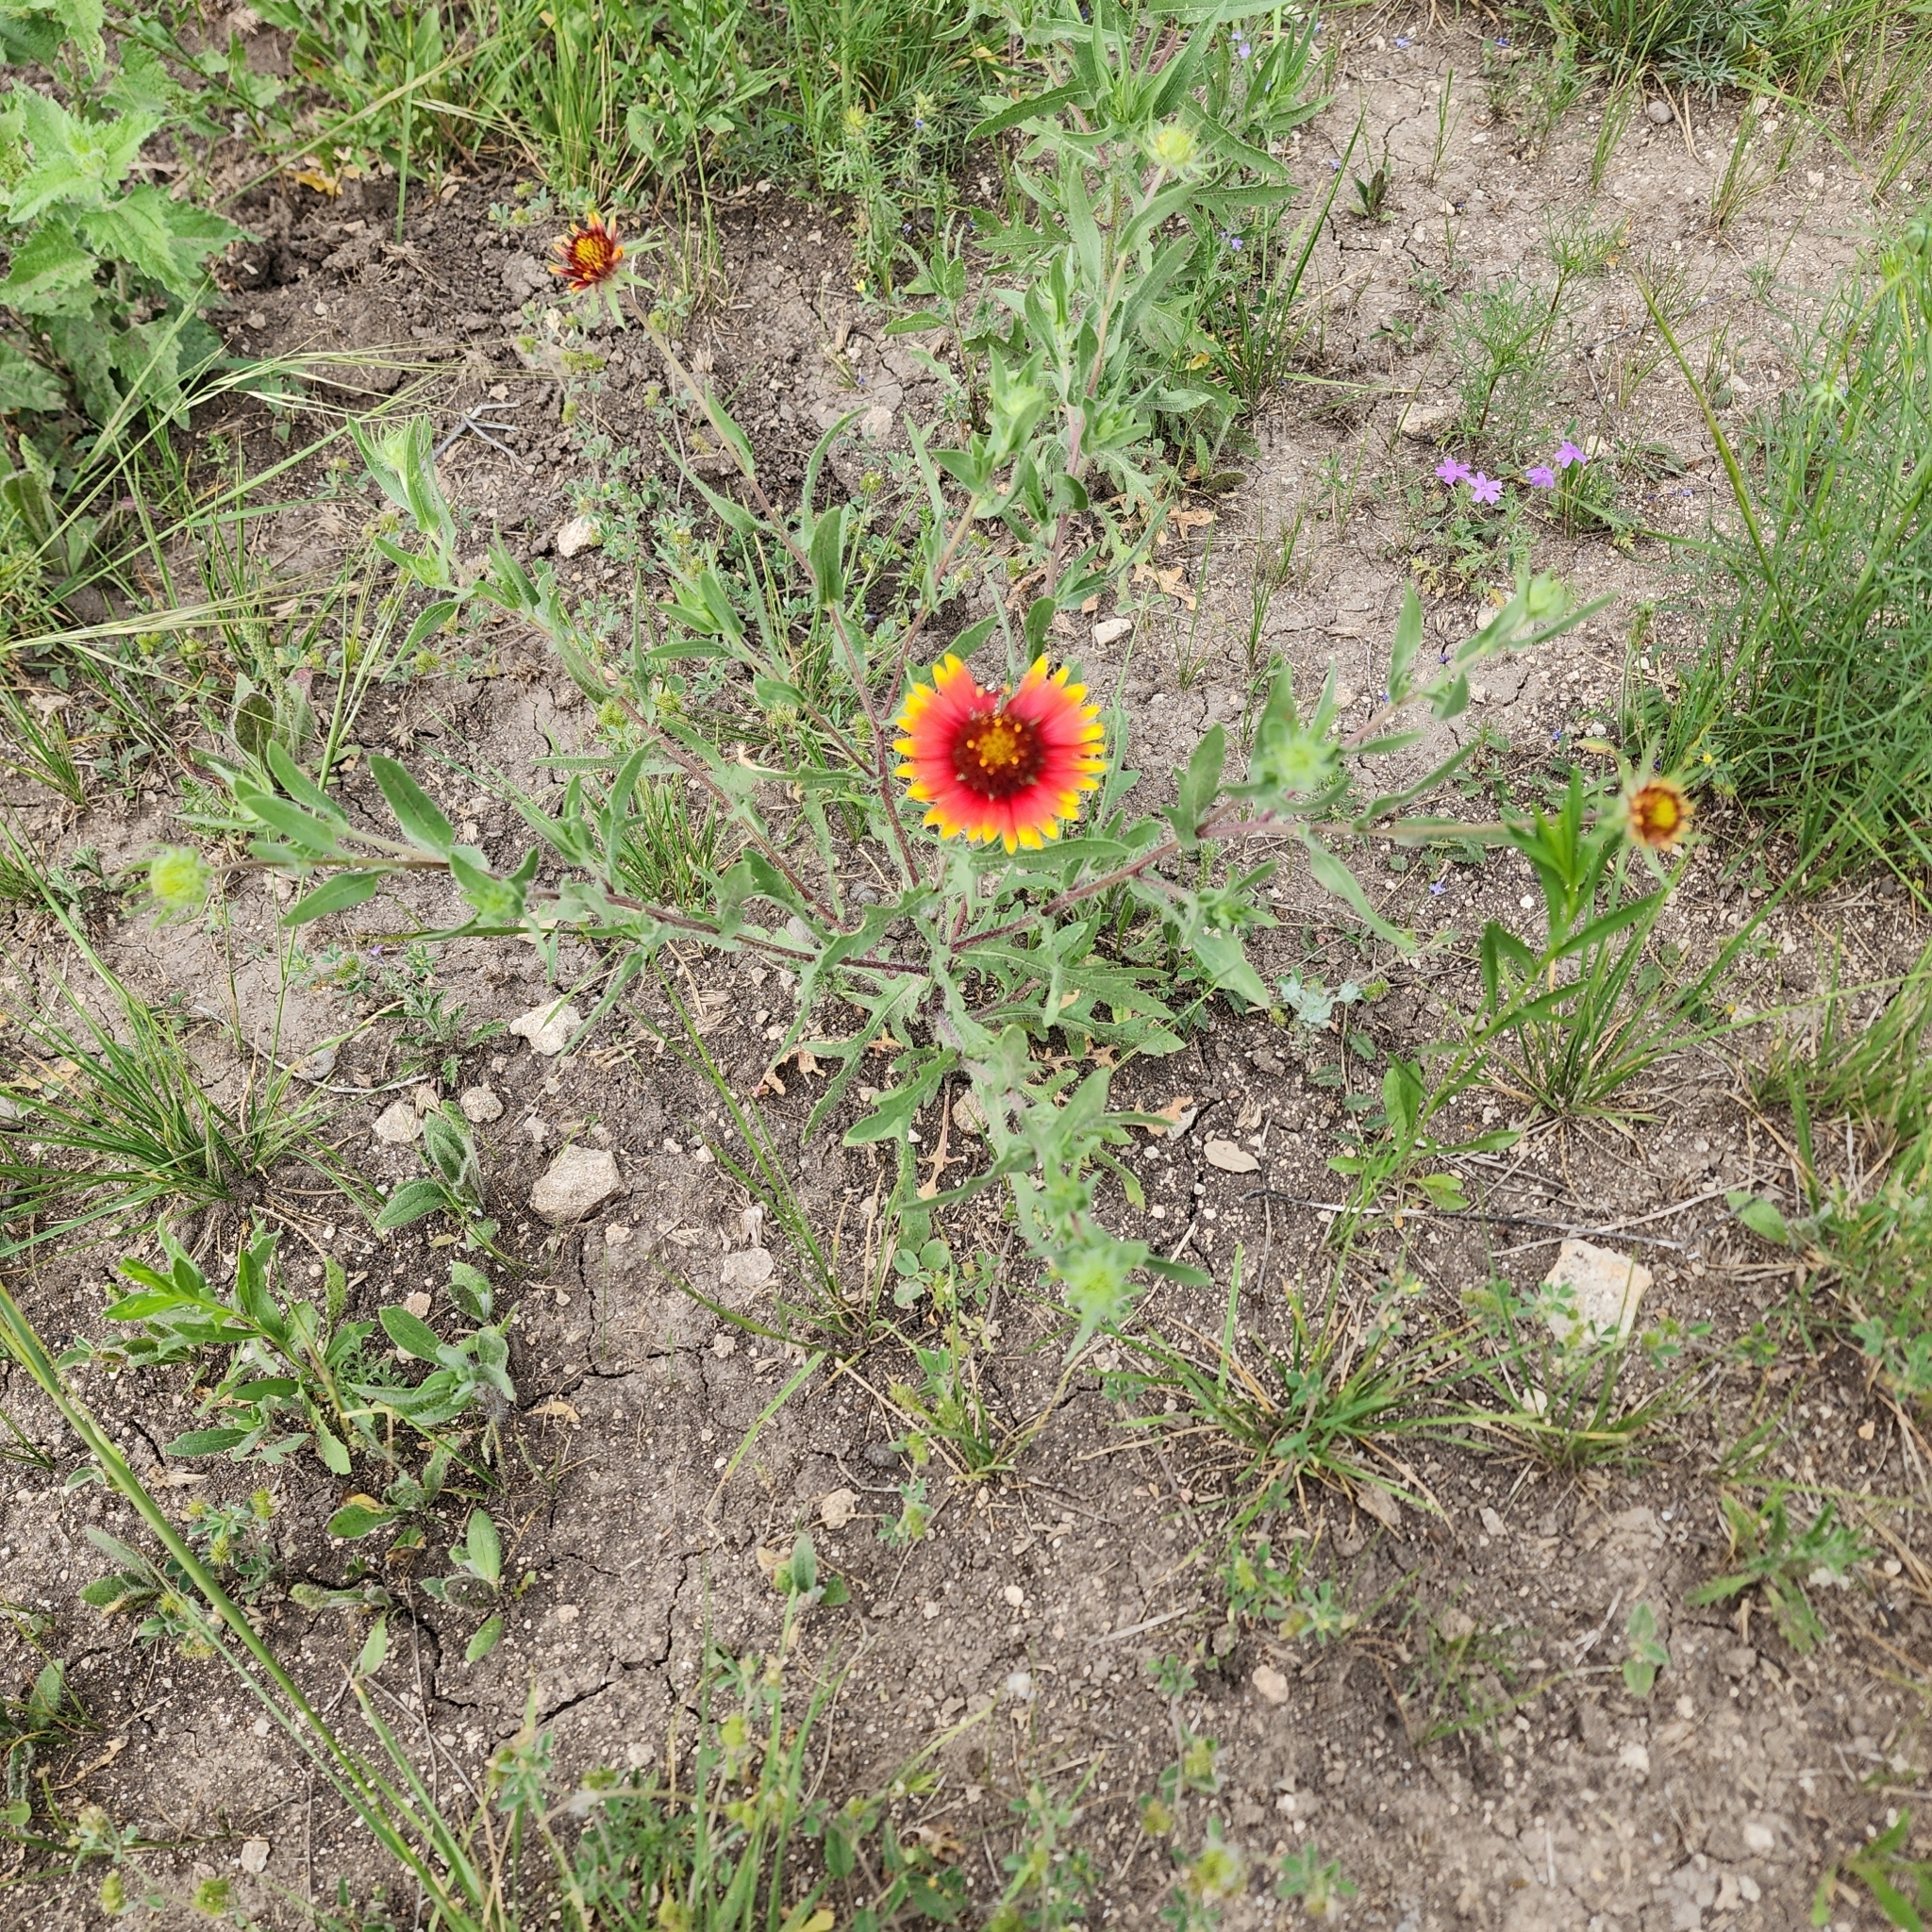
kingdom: Plantae
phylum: Tracheophyta
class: Magnoliopsida
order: Asterales
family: Asteraceae
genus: Gaillardia
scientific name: Gaillardia pulchella
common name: Firewheel
